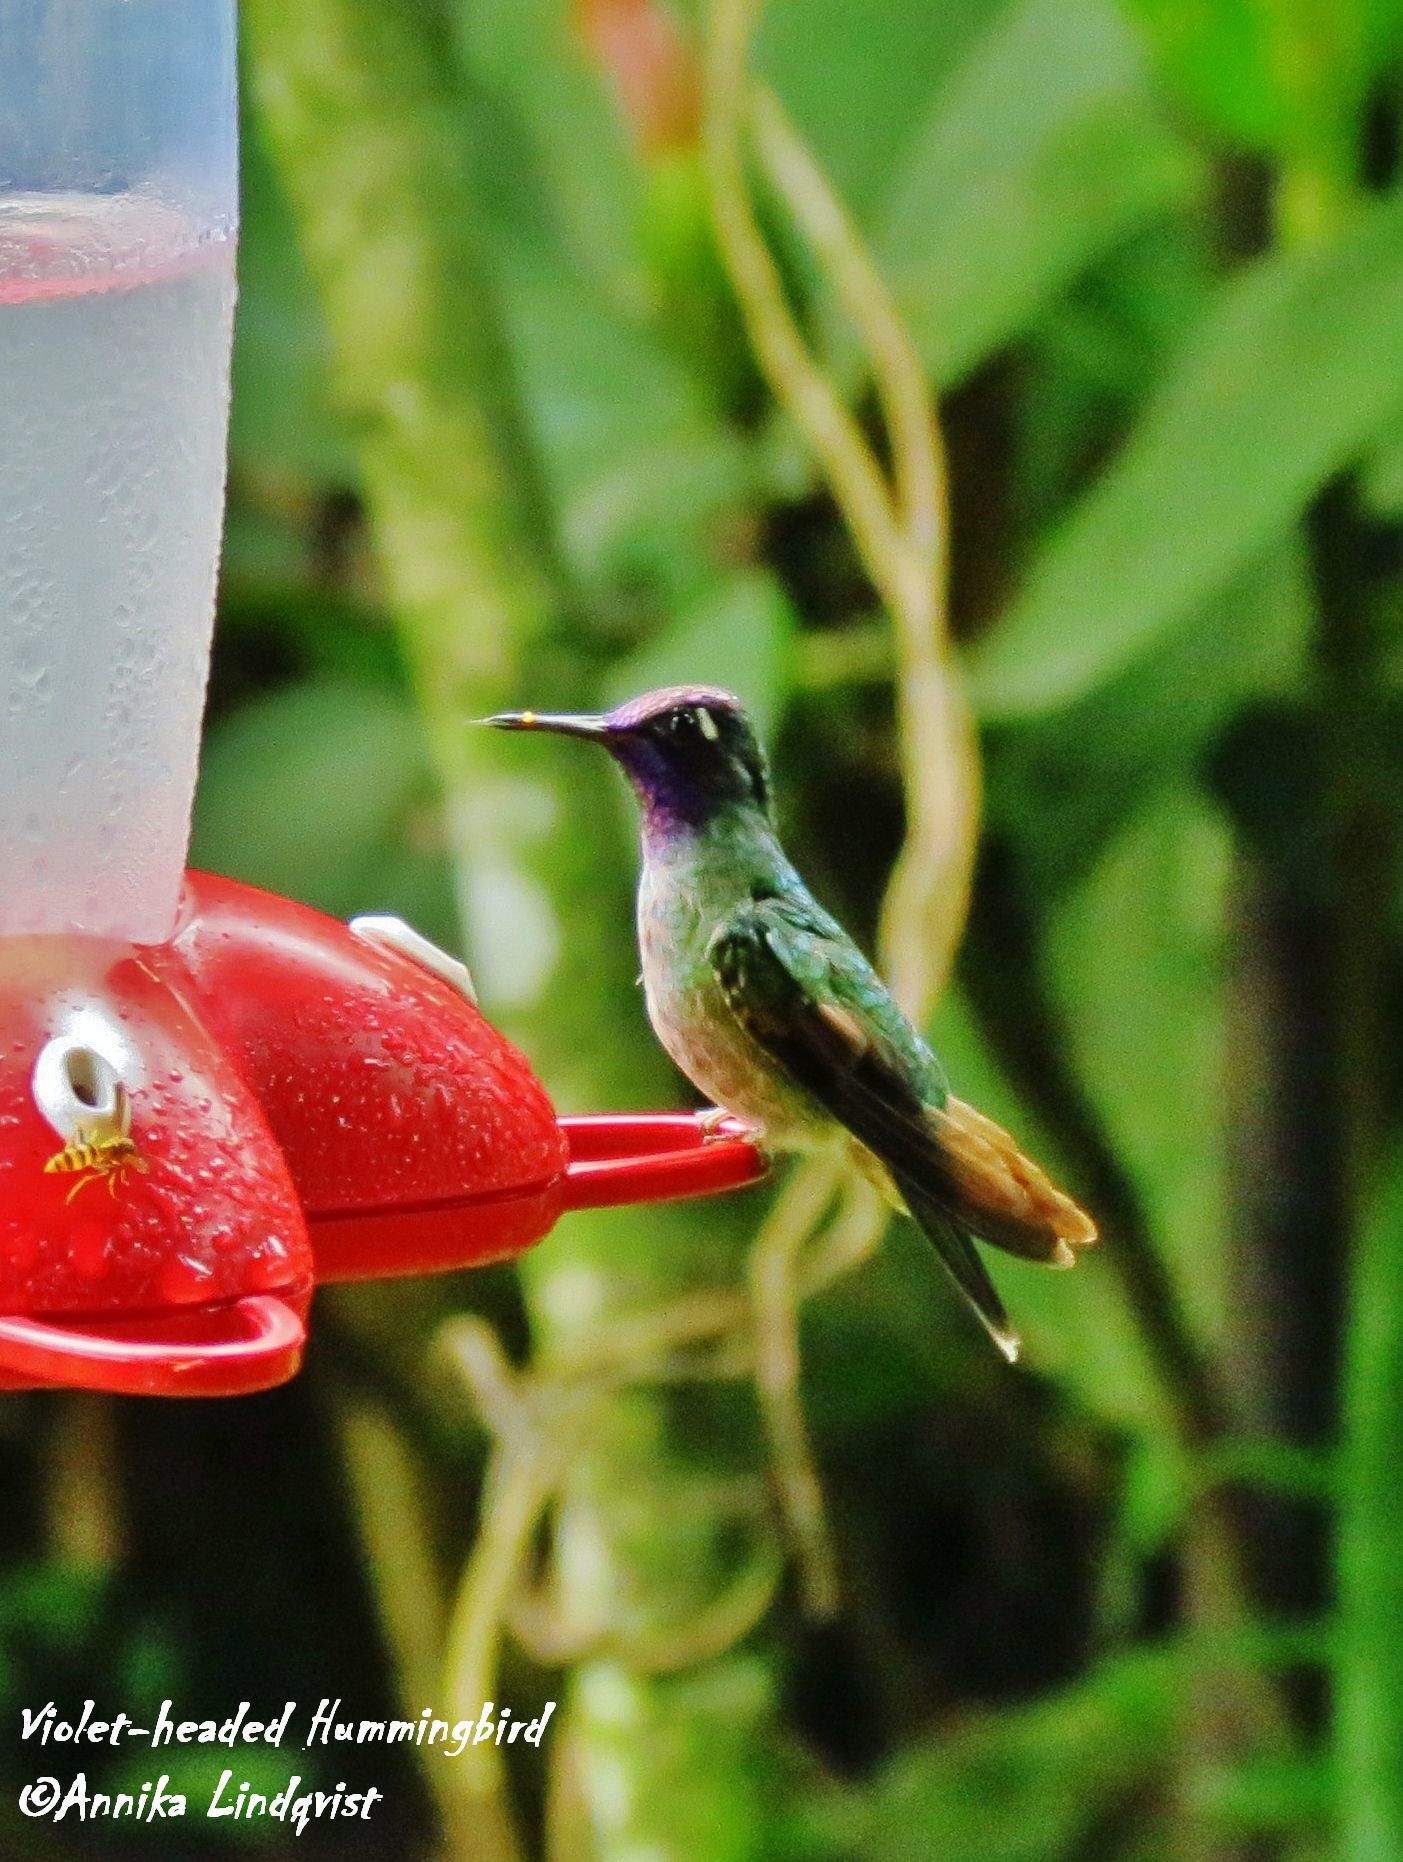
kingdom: Animalia
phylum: Chordata
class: Aves
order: Apodiformes
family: Trochilidae
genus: Klais
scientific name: Klais guimeti
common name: Violet-headed hummingbird
